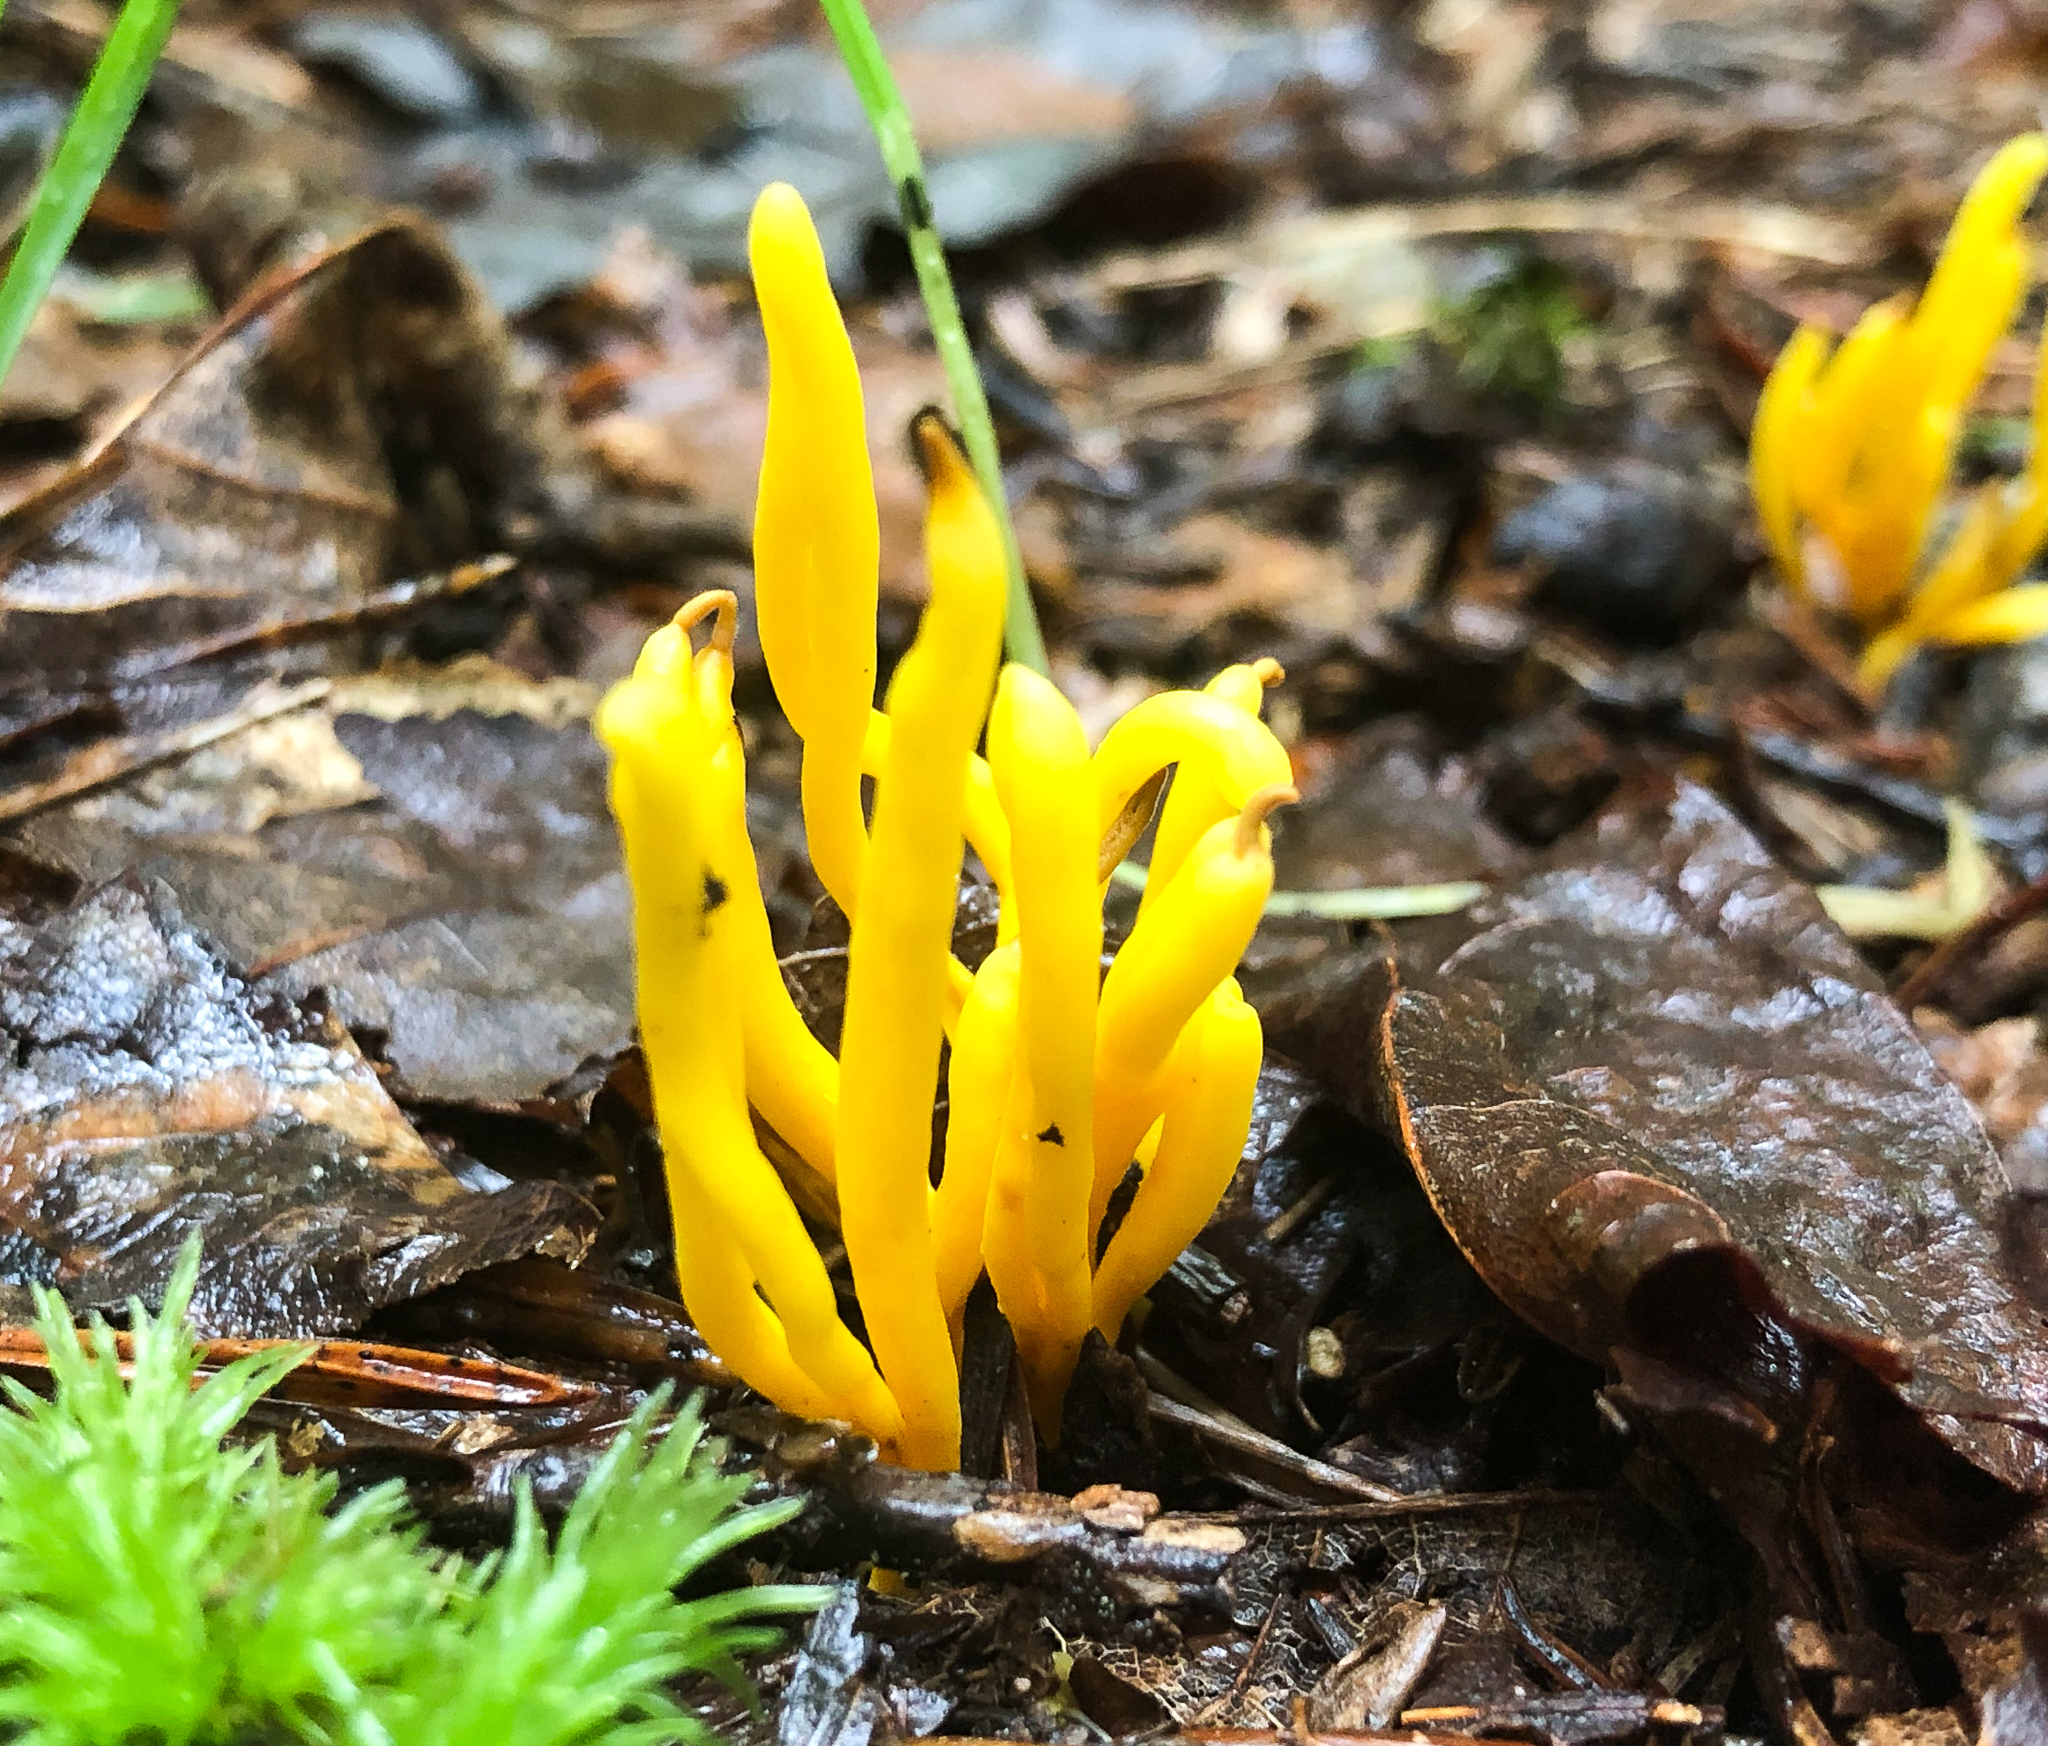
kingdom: Fungi
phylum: Basidiomycota
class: Agaricomycetes
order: Agaricales
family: Clavariaceae
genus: Clavulinopsis
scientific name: Clavulinopsis fusiformis
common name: Golden spindles
